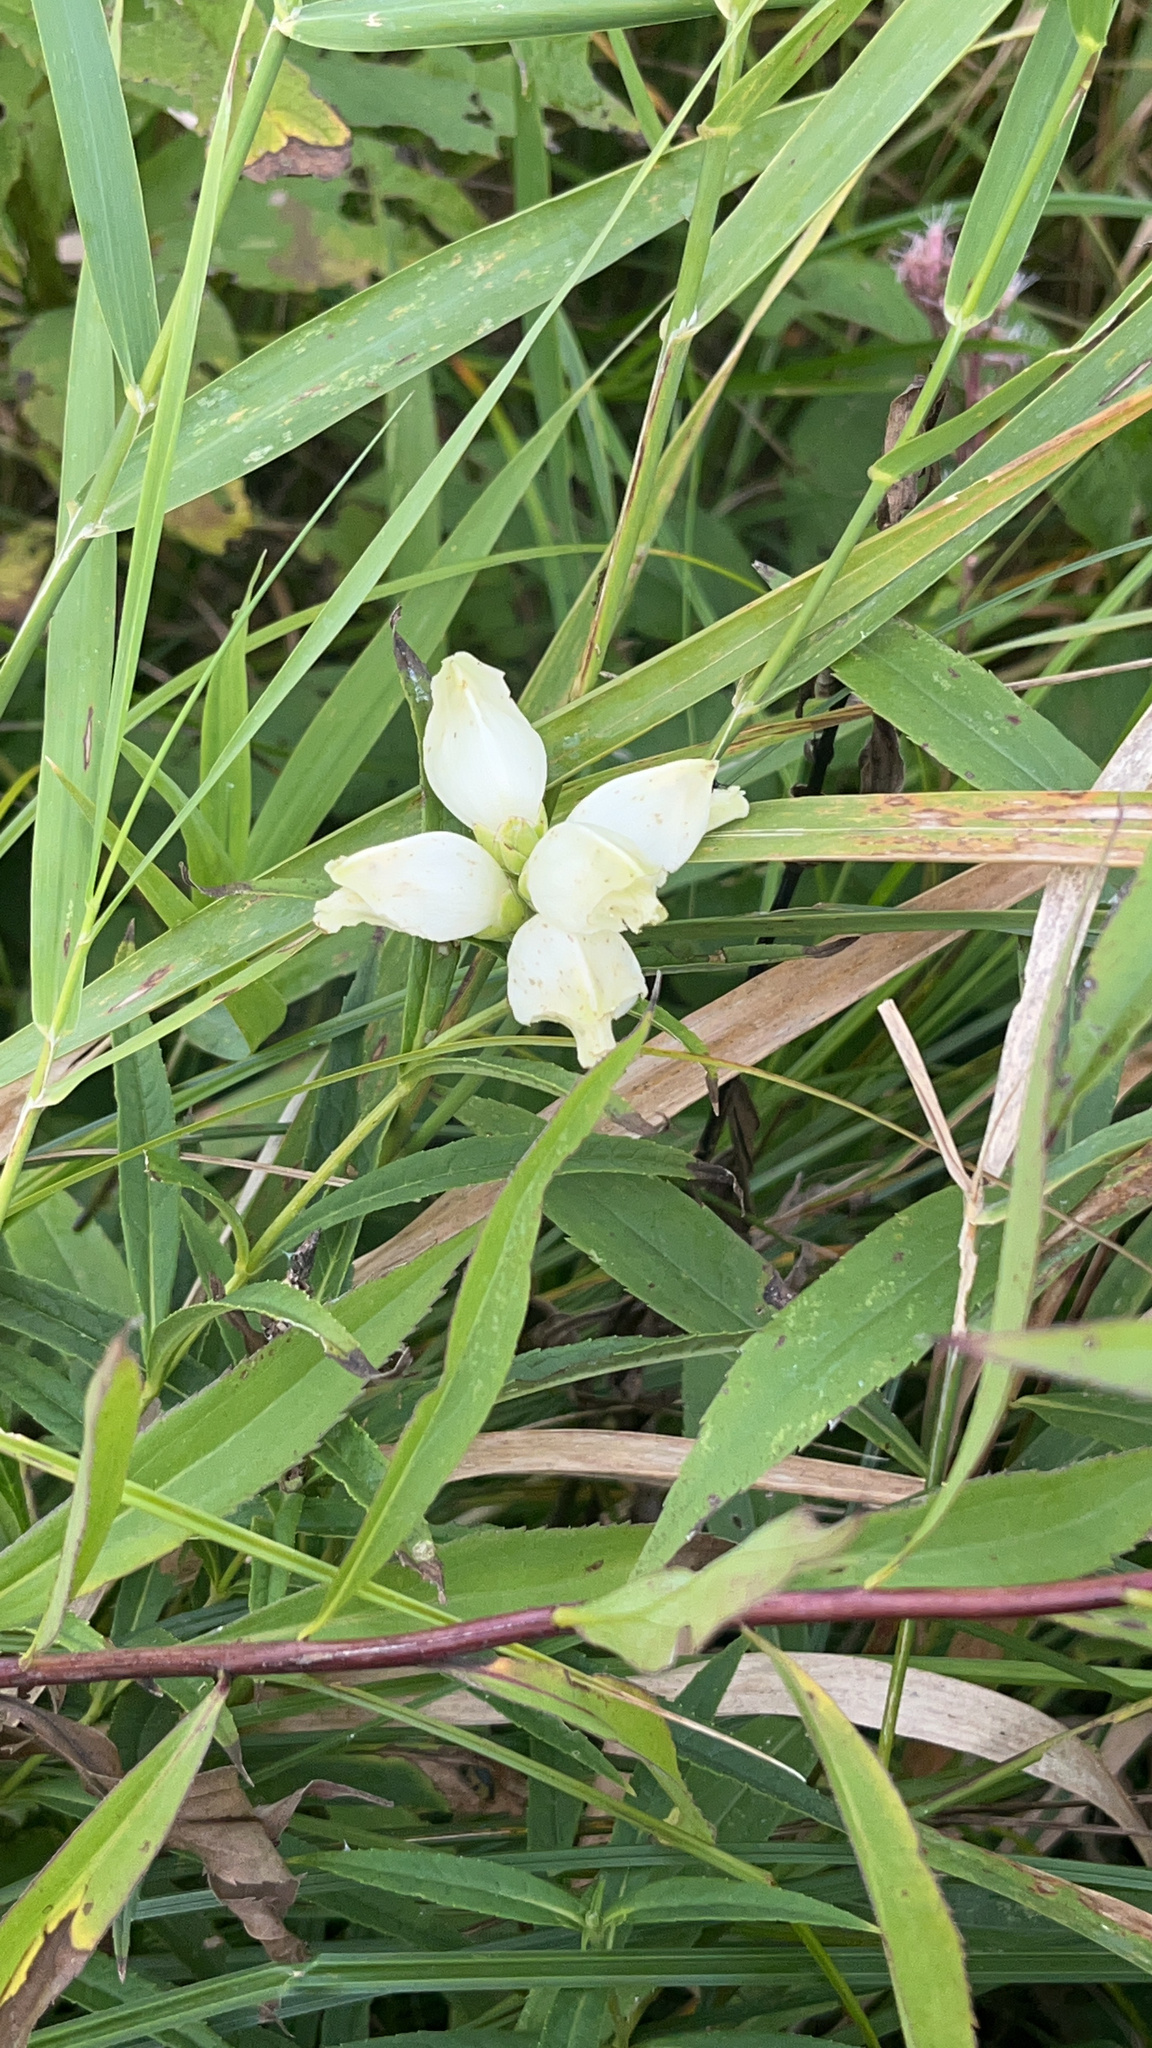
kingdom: Plantae
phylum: Tracheophyta
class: Magnoliopsida
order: Lamiales
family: Plantaginaceae
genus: Chelone
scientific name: Chelone glabra
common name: Snakehead
